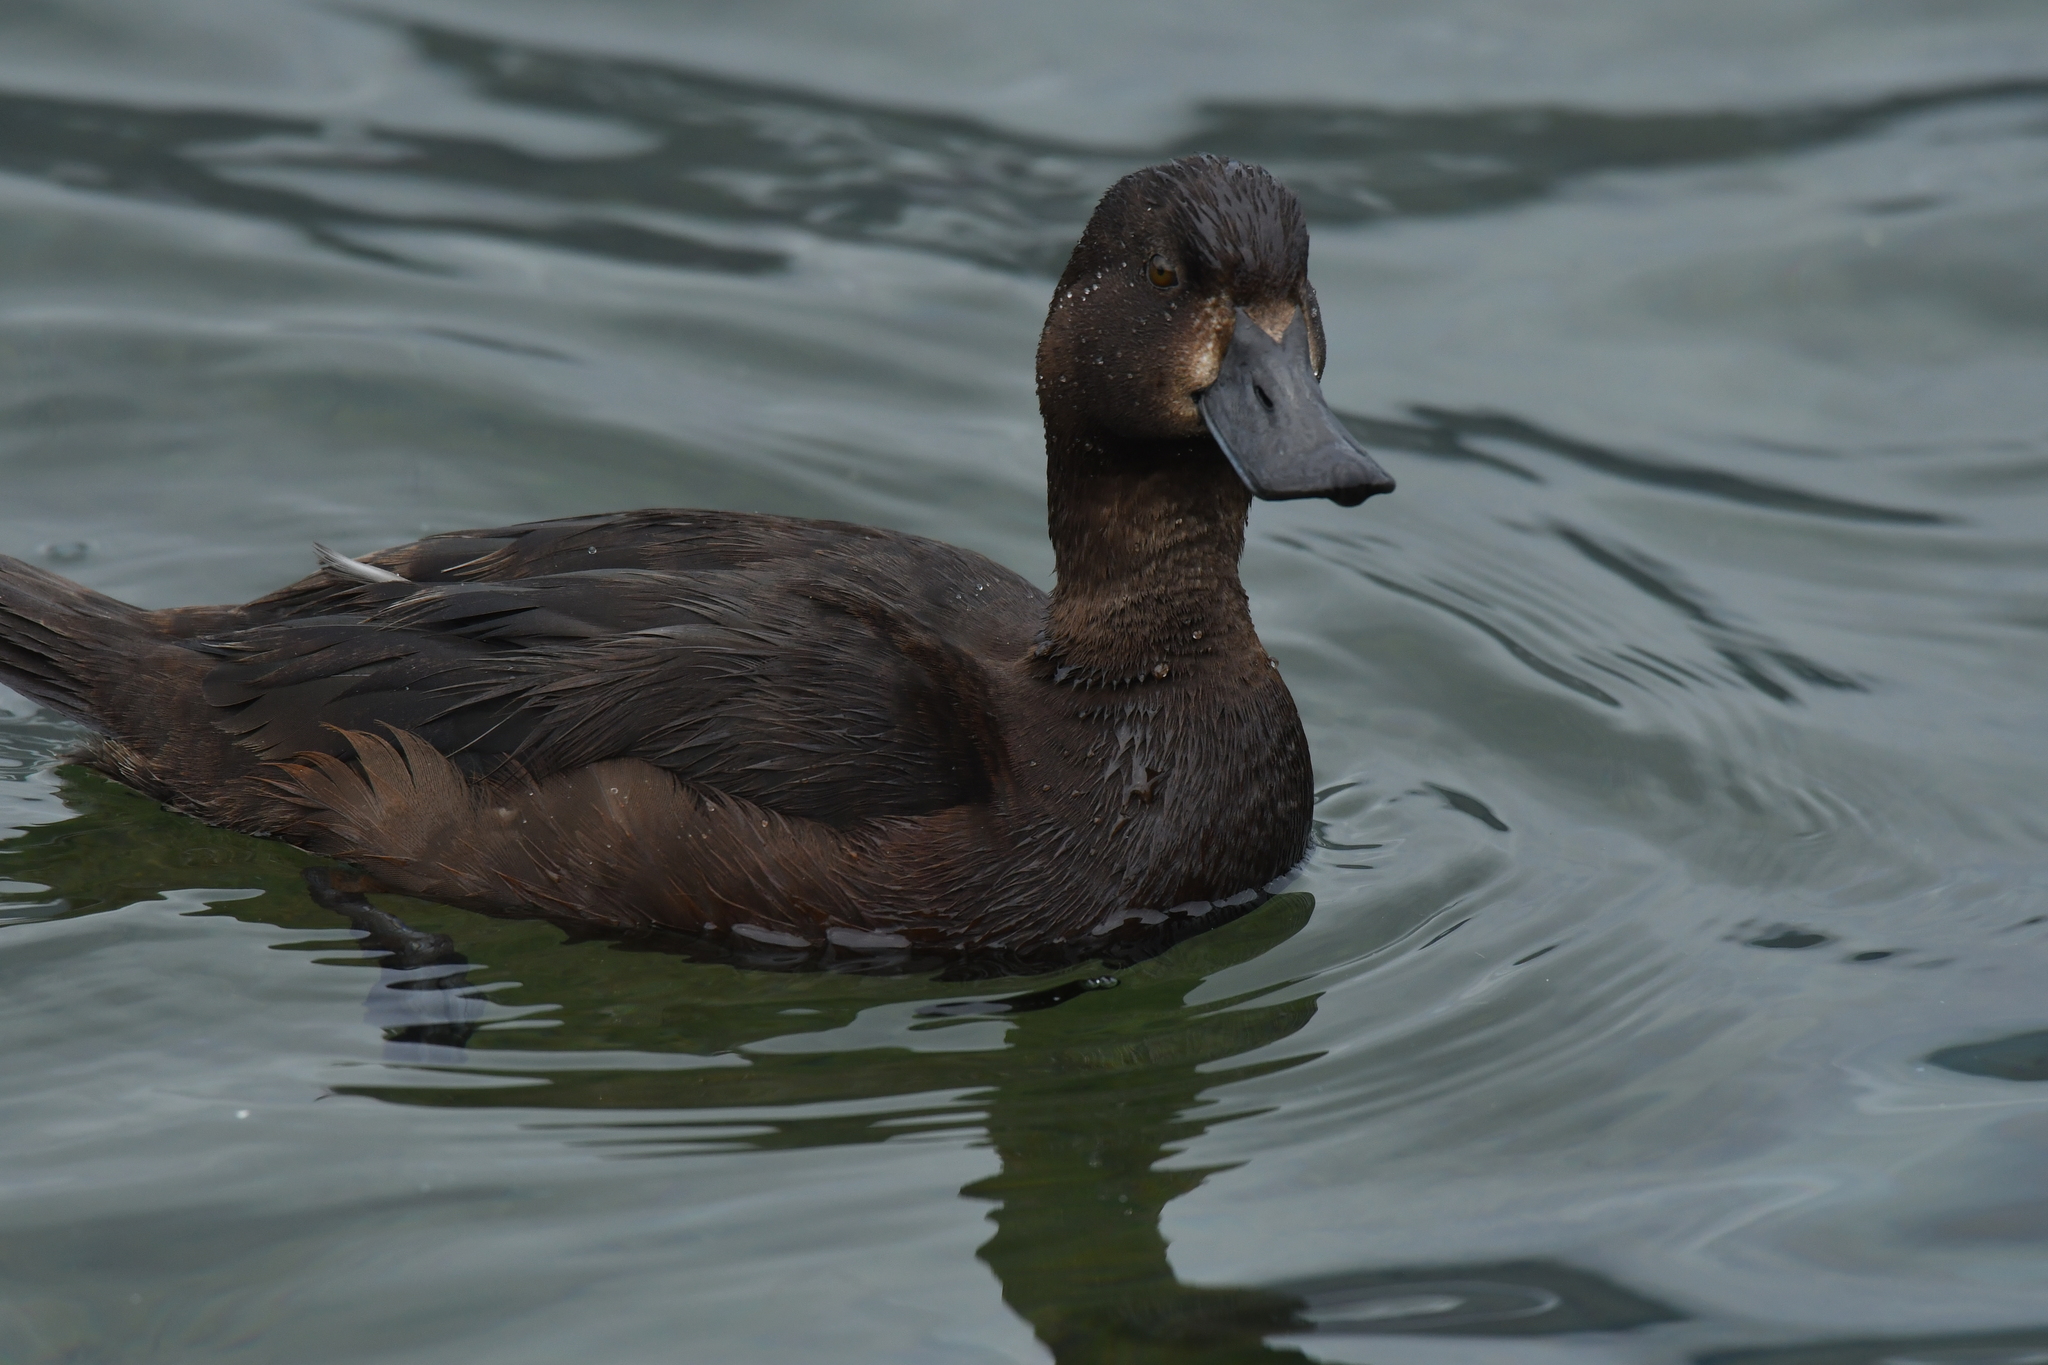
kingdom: Animalia
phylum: Chordata
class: Aves
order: Anseriformes
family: Anatidae
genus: Aythya
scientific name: Aythya novaeseelandiae
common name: New zealand scaup
